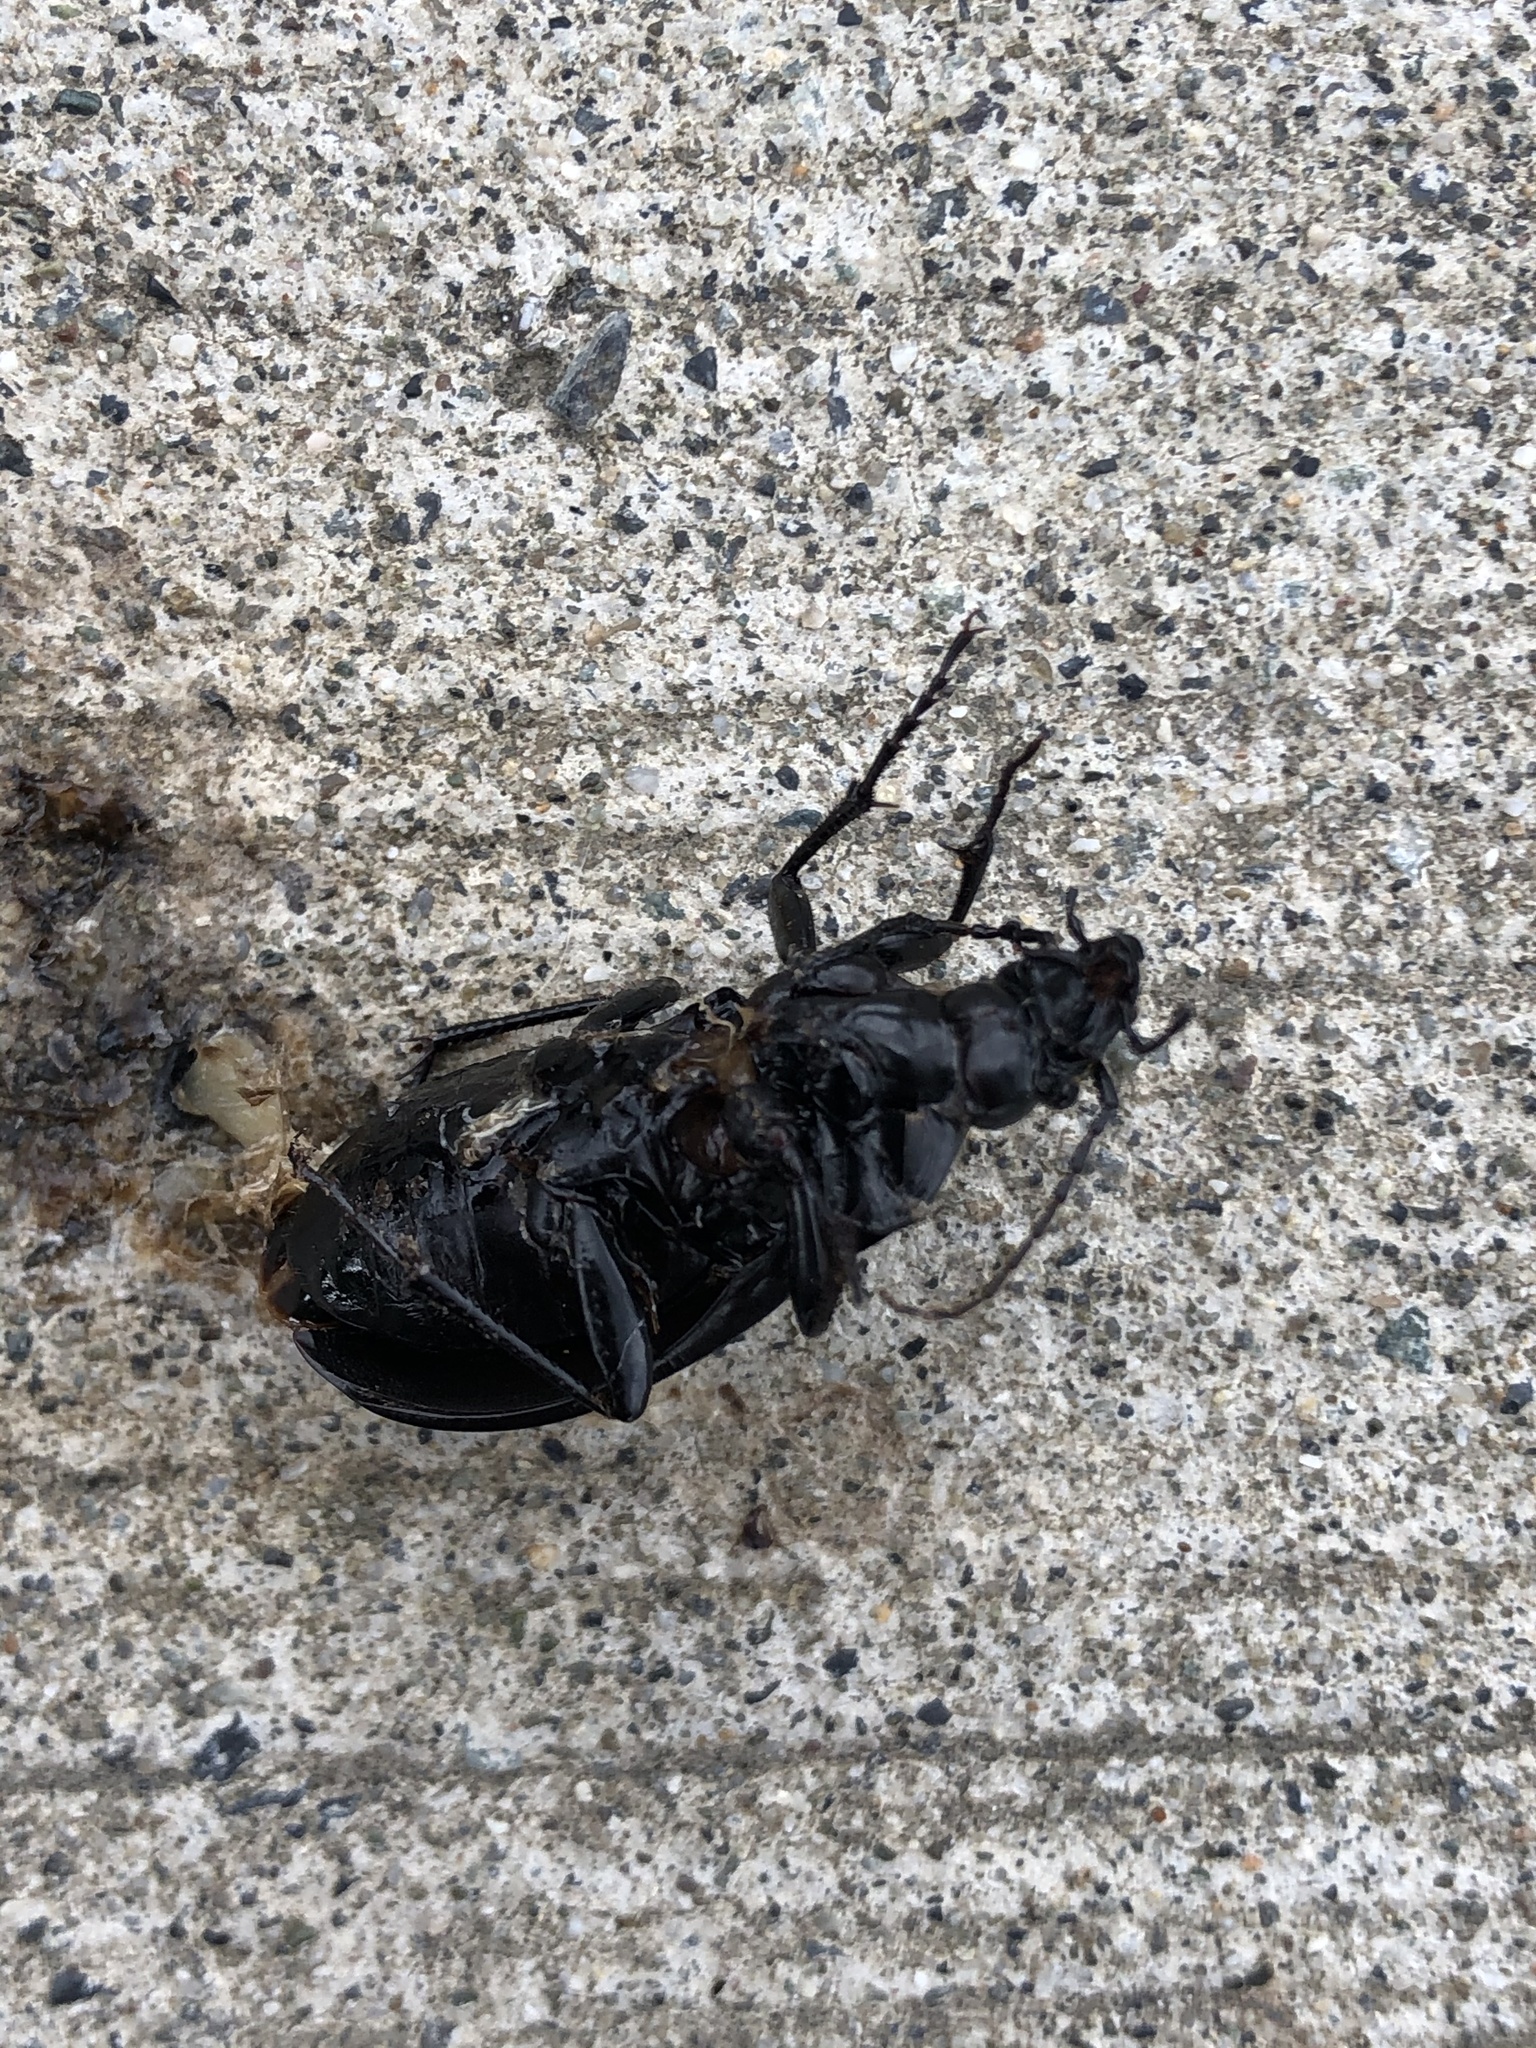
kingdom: Animalia
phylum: Arthropoda
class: Insecta
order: Coleoptera
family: Carabidae
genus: Carabus
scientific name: Carabus nemoralis
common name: European ground beetle
